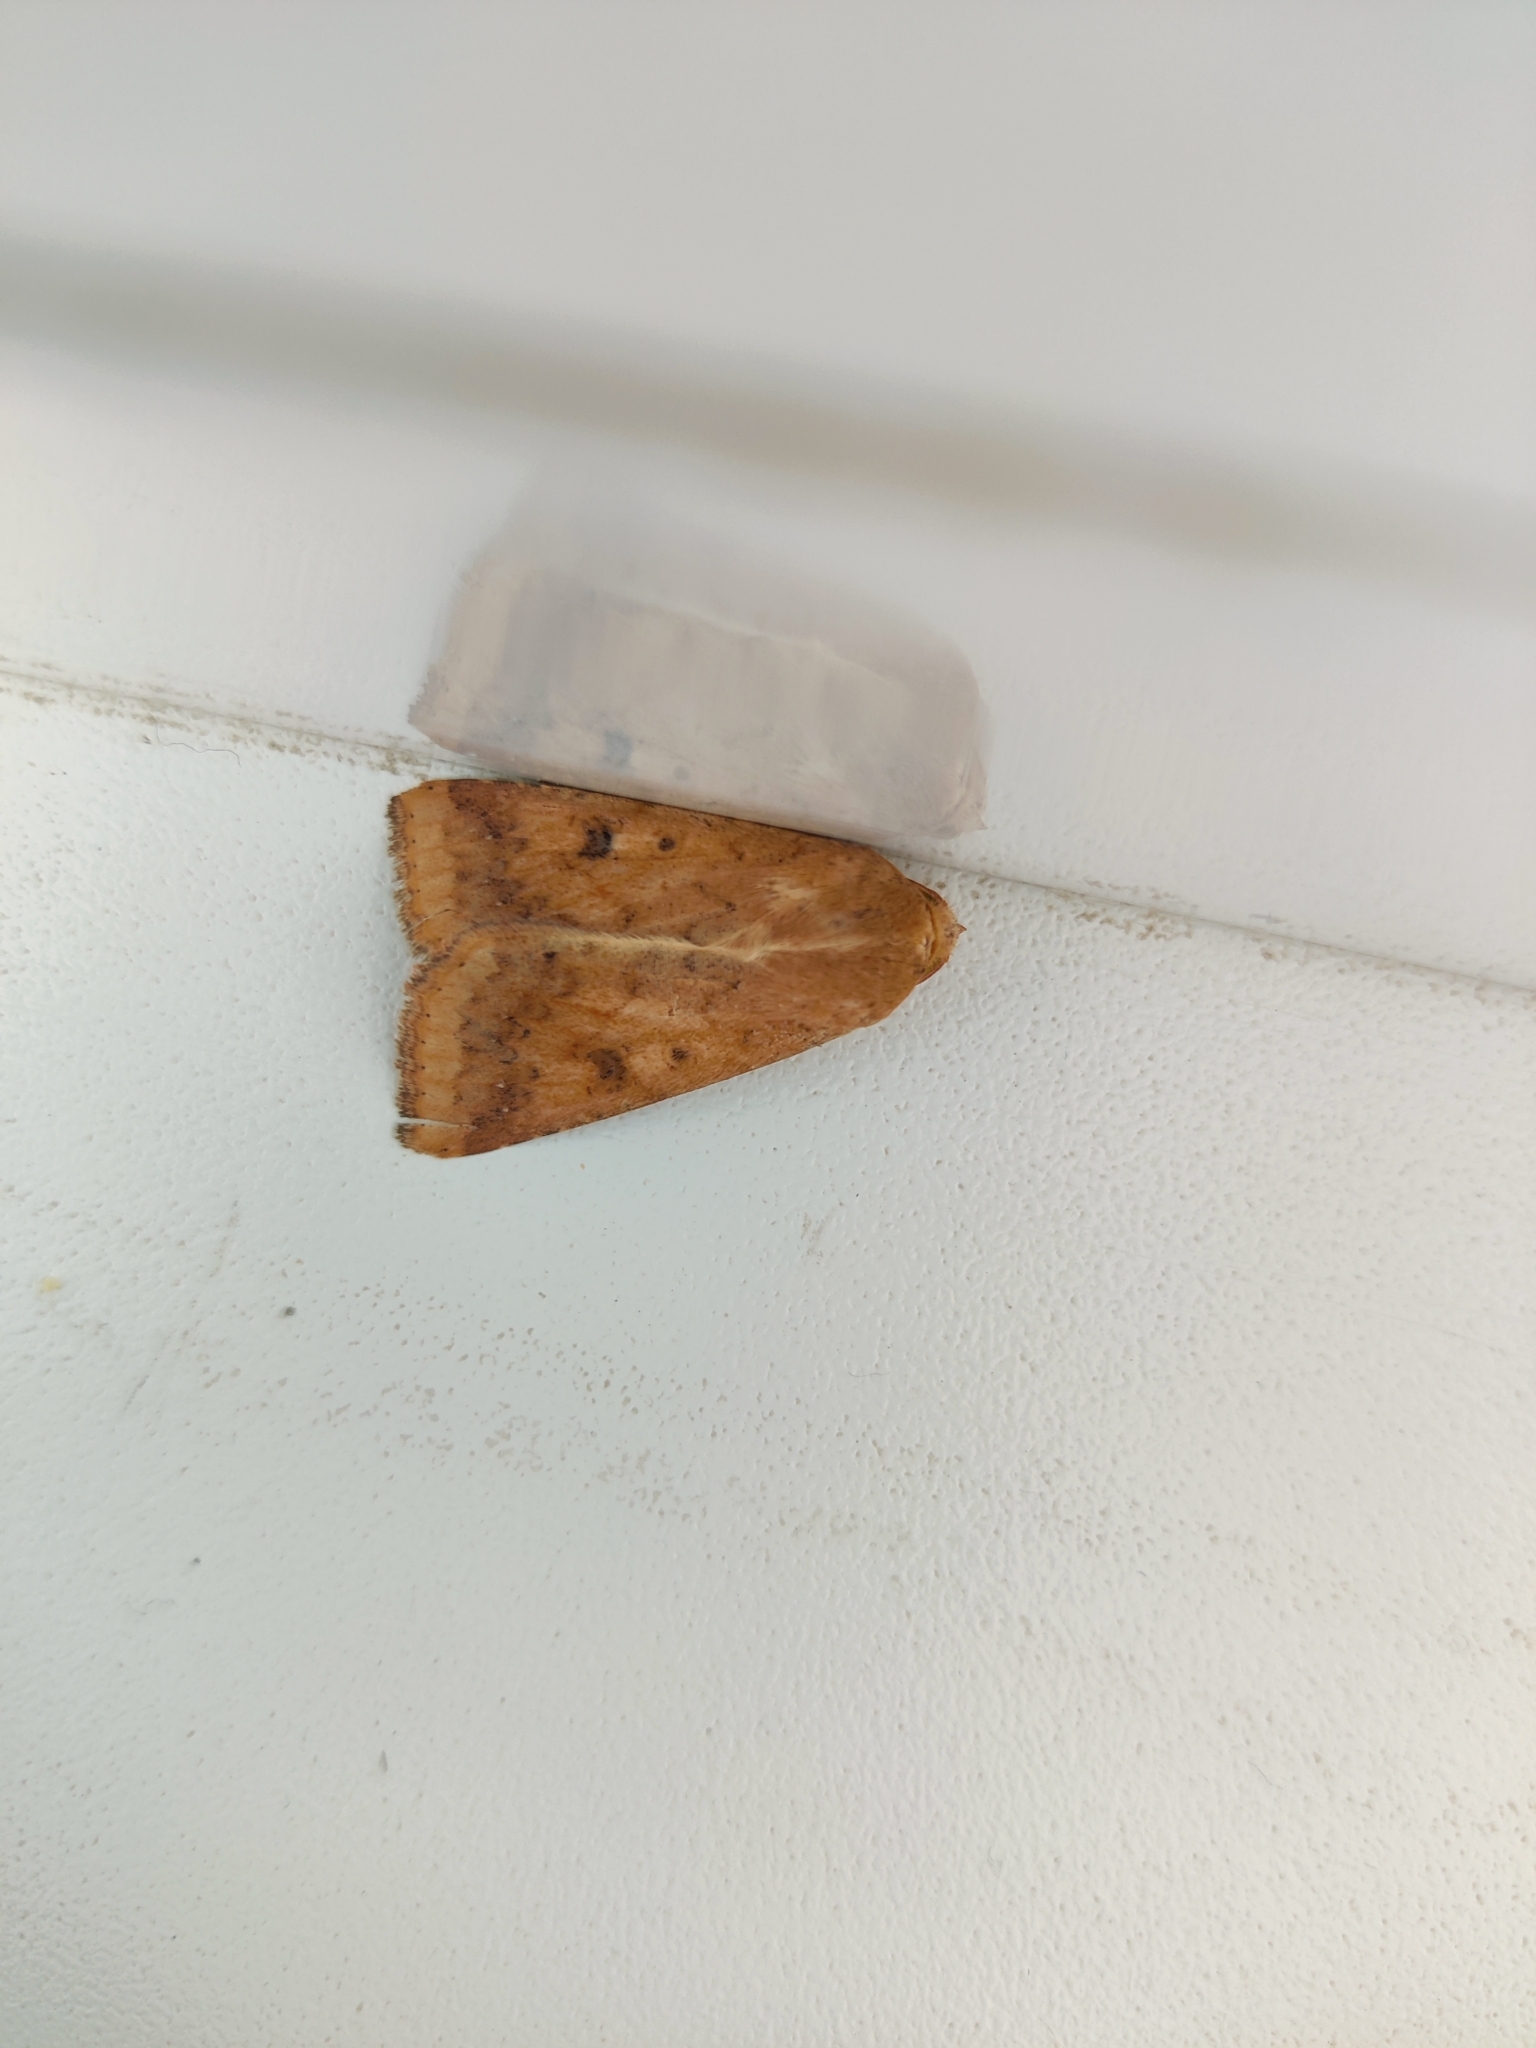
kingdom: Animalia
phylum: Arthropoda
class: Insecta
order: Lepidoptera
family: Noctuidae
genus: Helicoverpa
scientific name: Helicoverpa armigera
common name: Cotton bollworm
